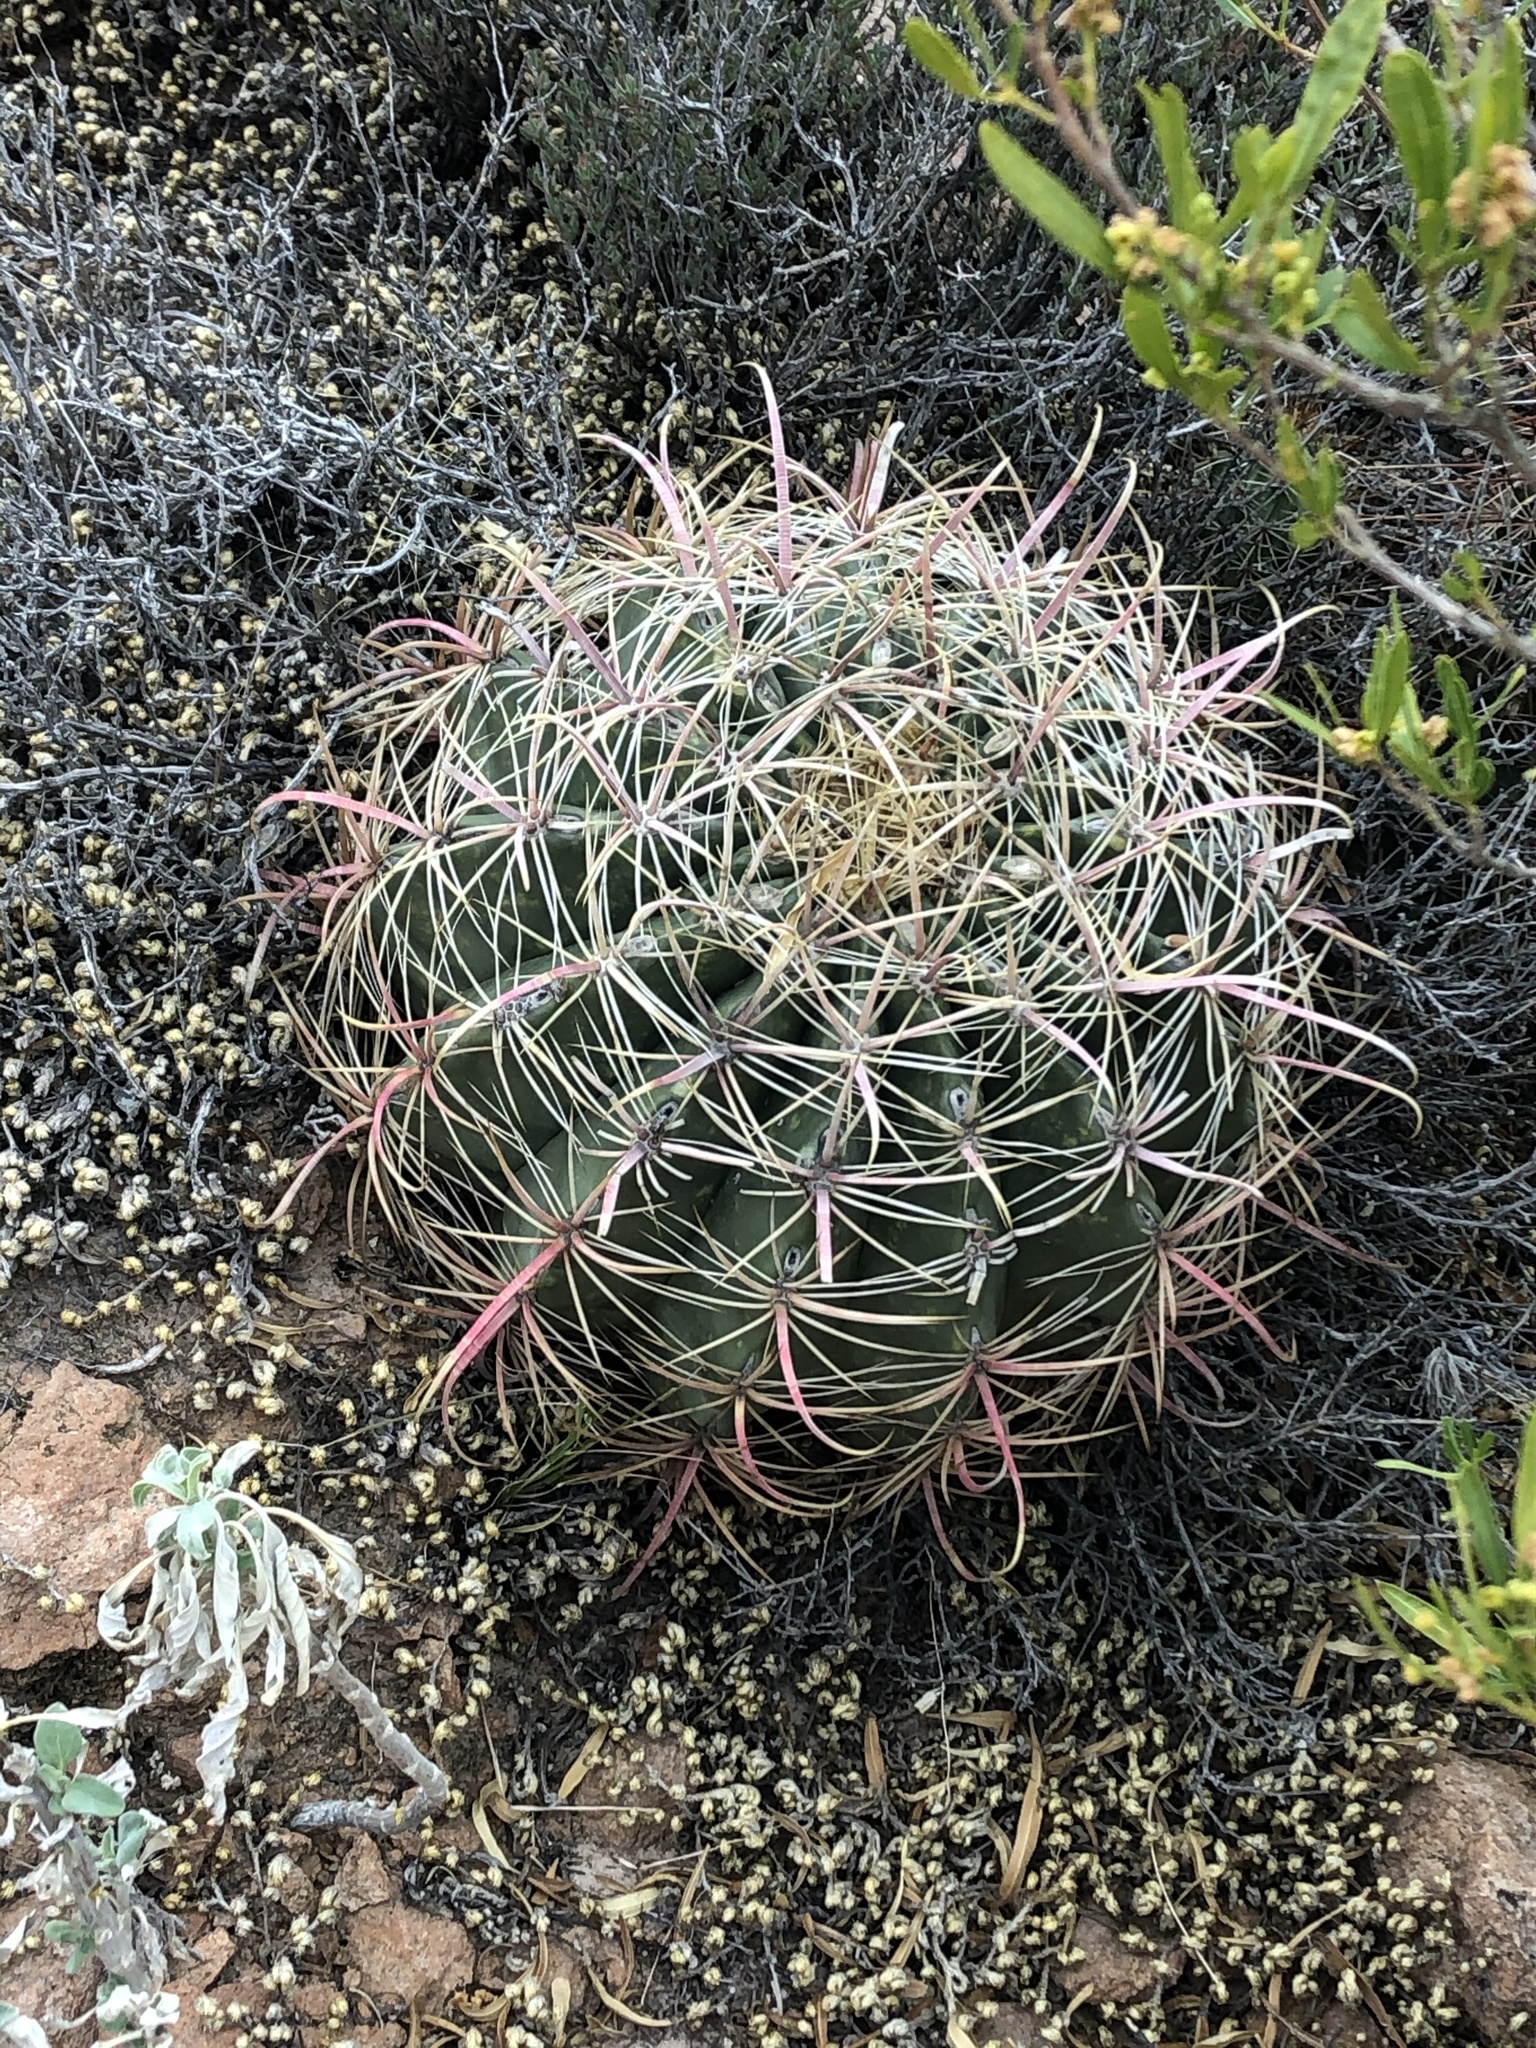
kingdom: Plantae
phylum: Tracheophyta
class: Magnoliopsida
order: Caryophyllales
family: Cactaceae
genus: Ferocactus
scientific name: Ferocactus cylindraceus
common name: California barrel cactus
